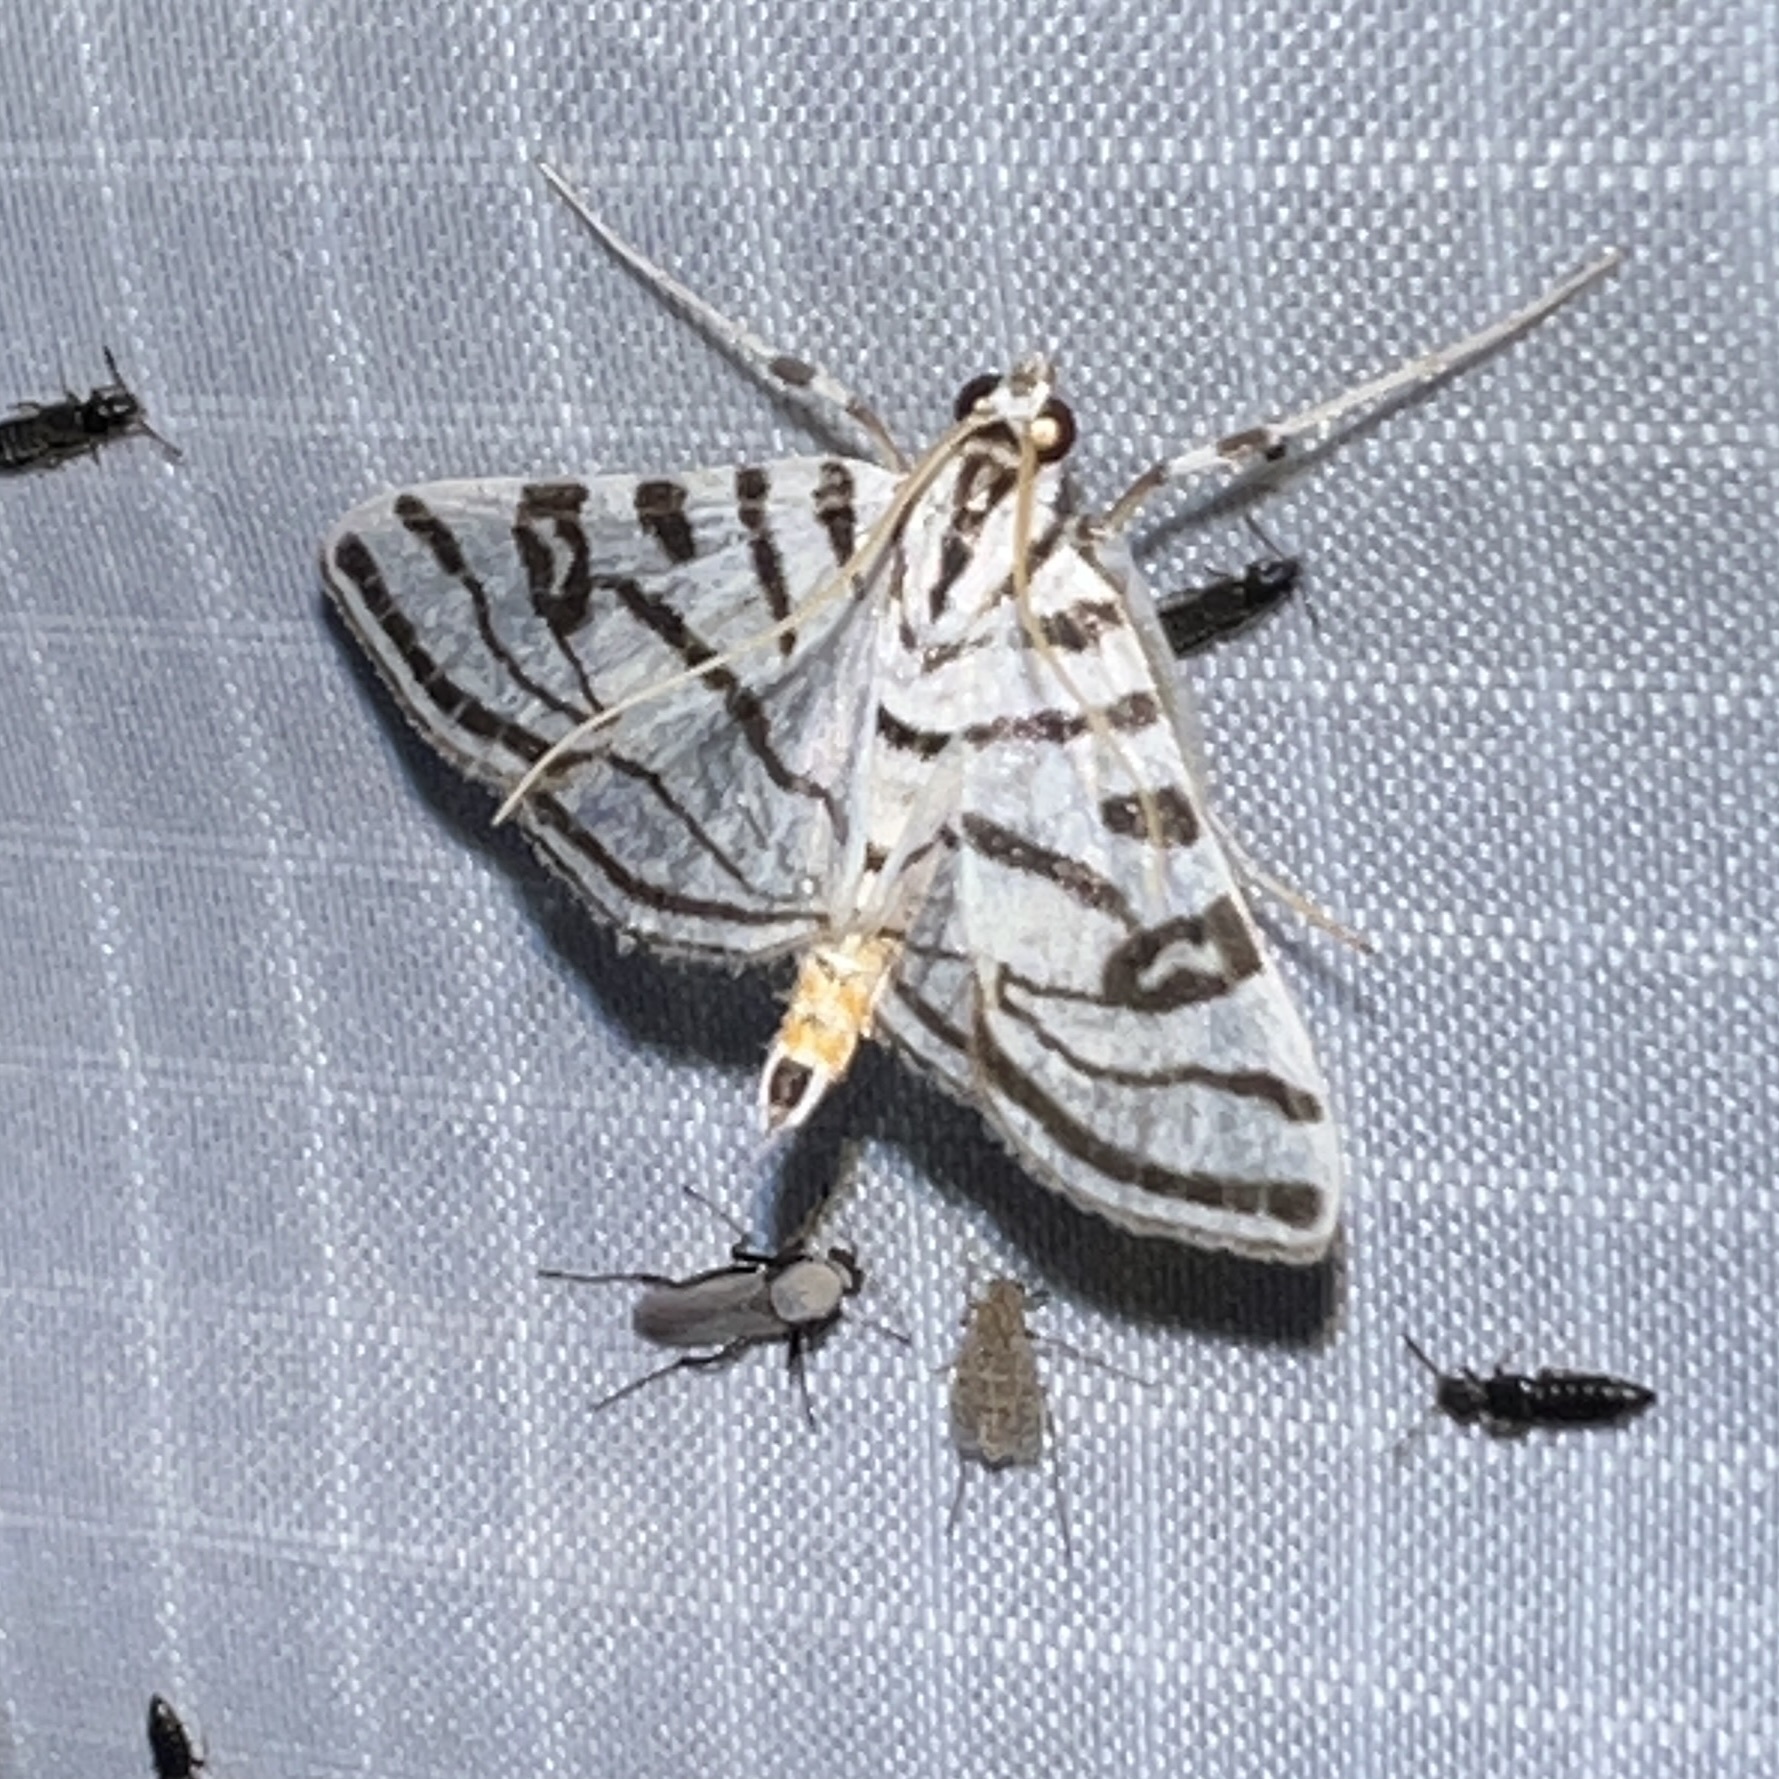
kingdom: Animalia
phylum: Arthropoda
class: Insecta
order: Lepidoptera
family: Crambidae
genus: Conchylodes
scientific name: Conchylodes ovulalis
